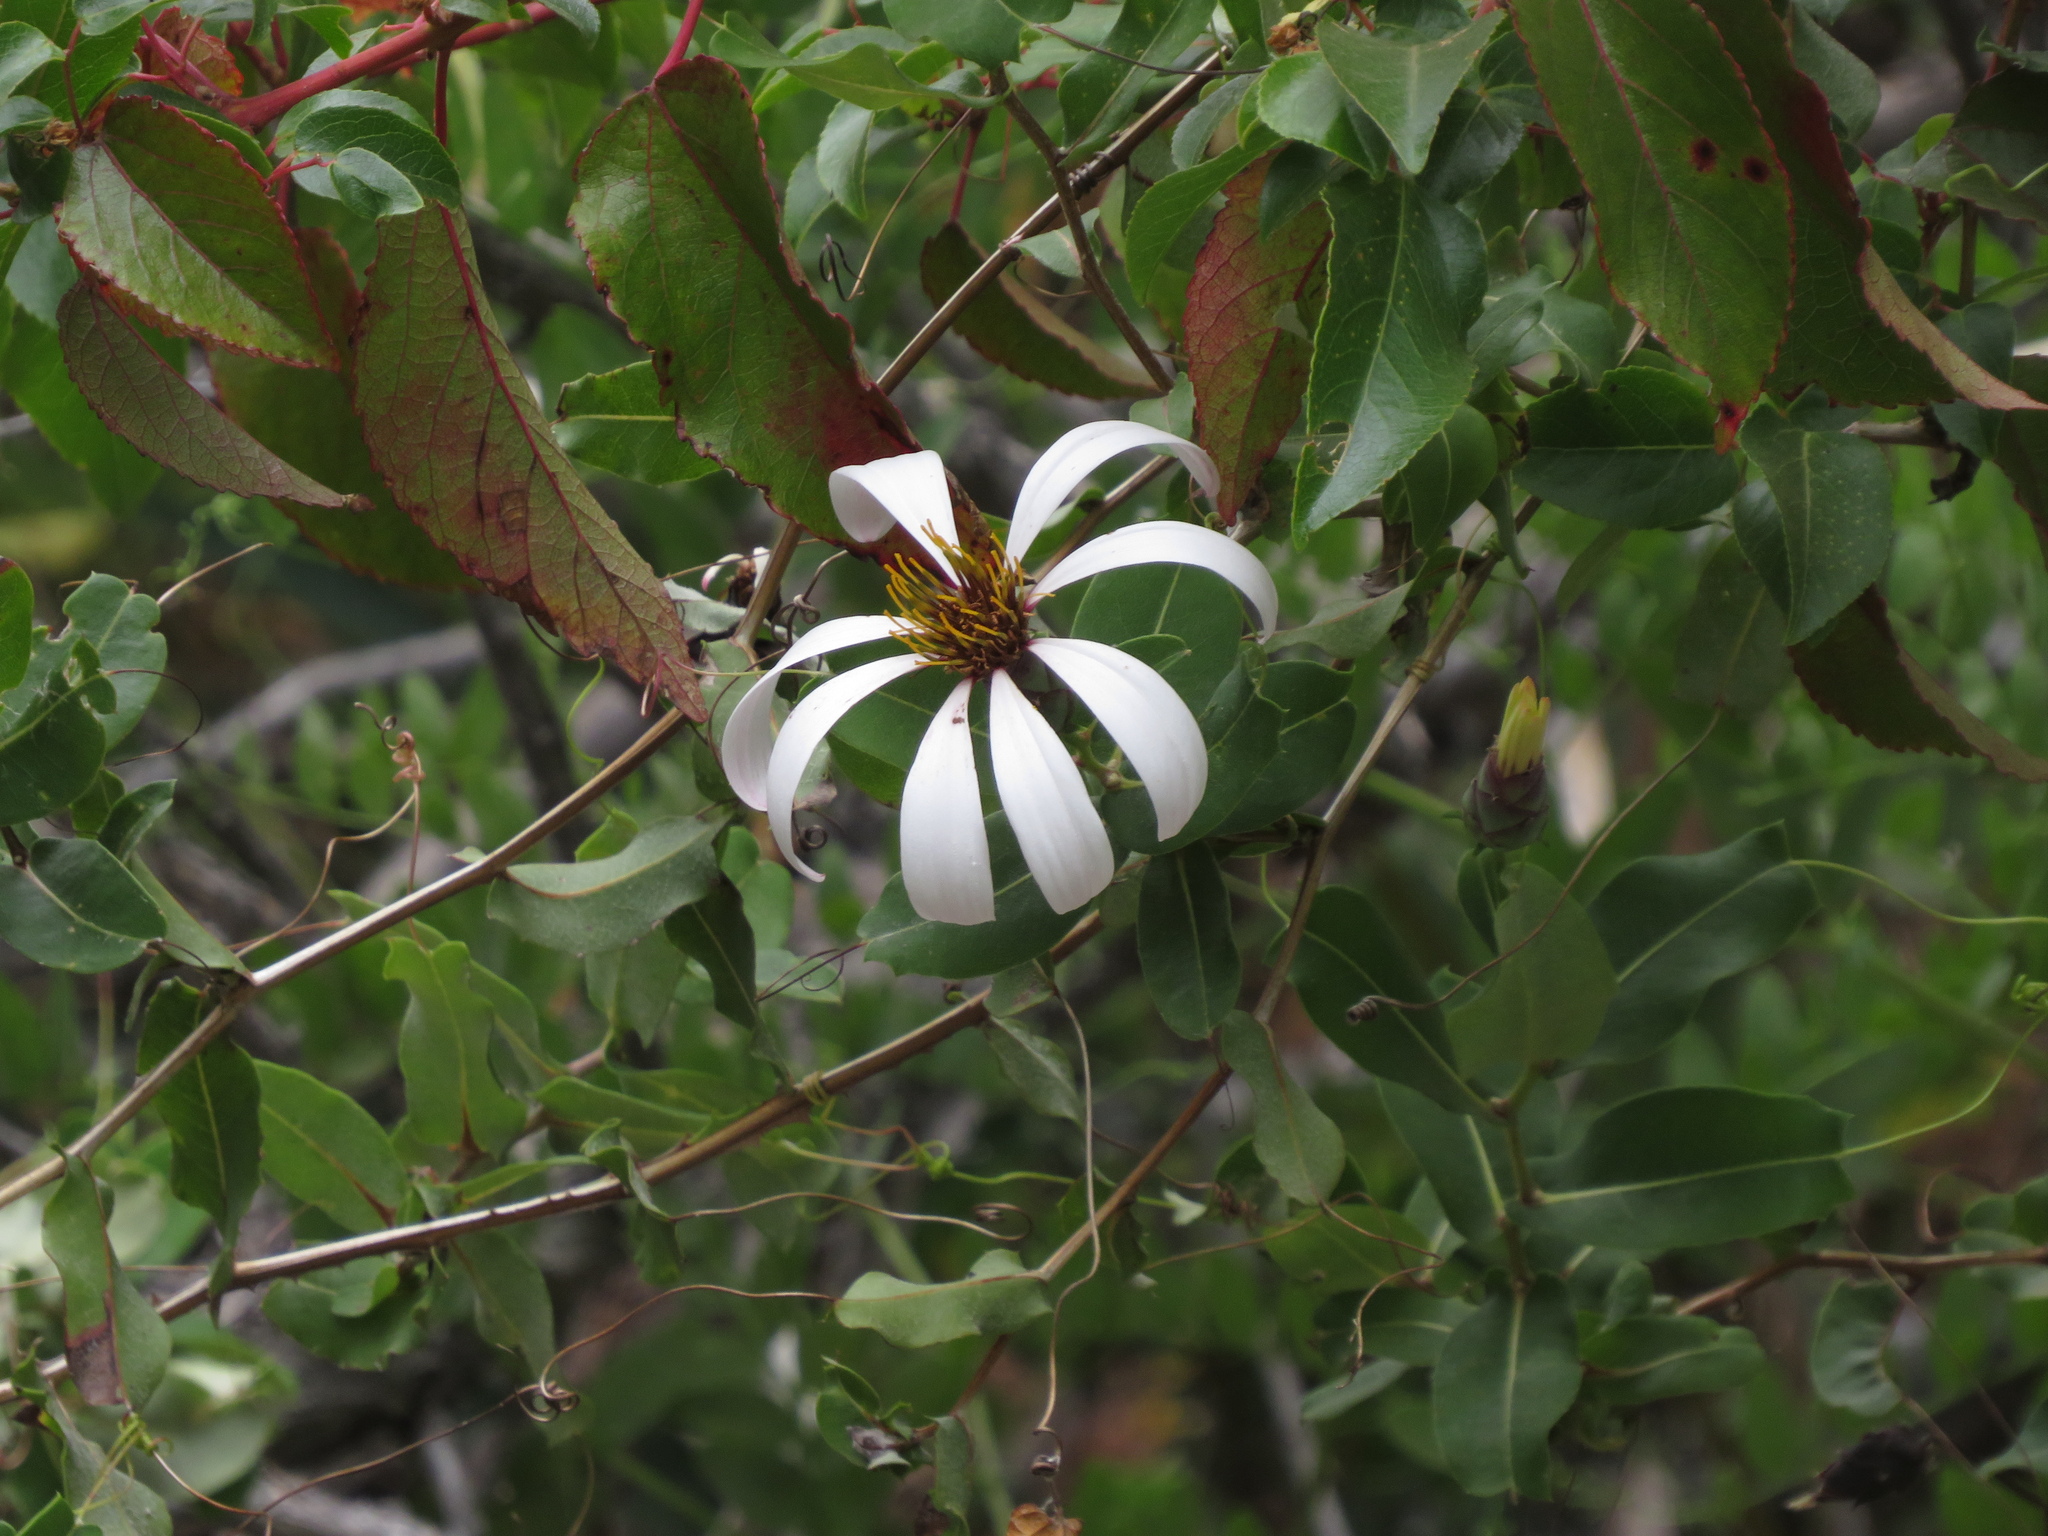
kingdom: Plantae
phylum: Tracheophyta
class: Magnoliopsida
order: Asterales
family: Asteraceae
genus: Mutisia
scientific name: Mutisia spinosa
